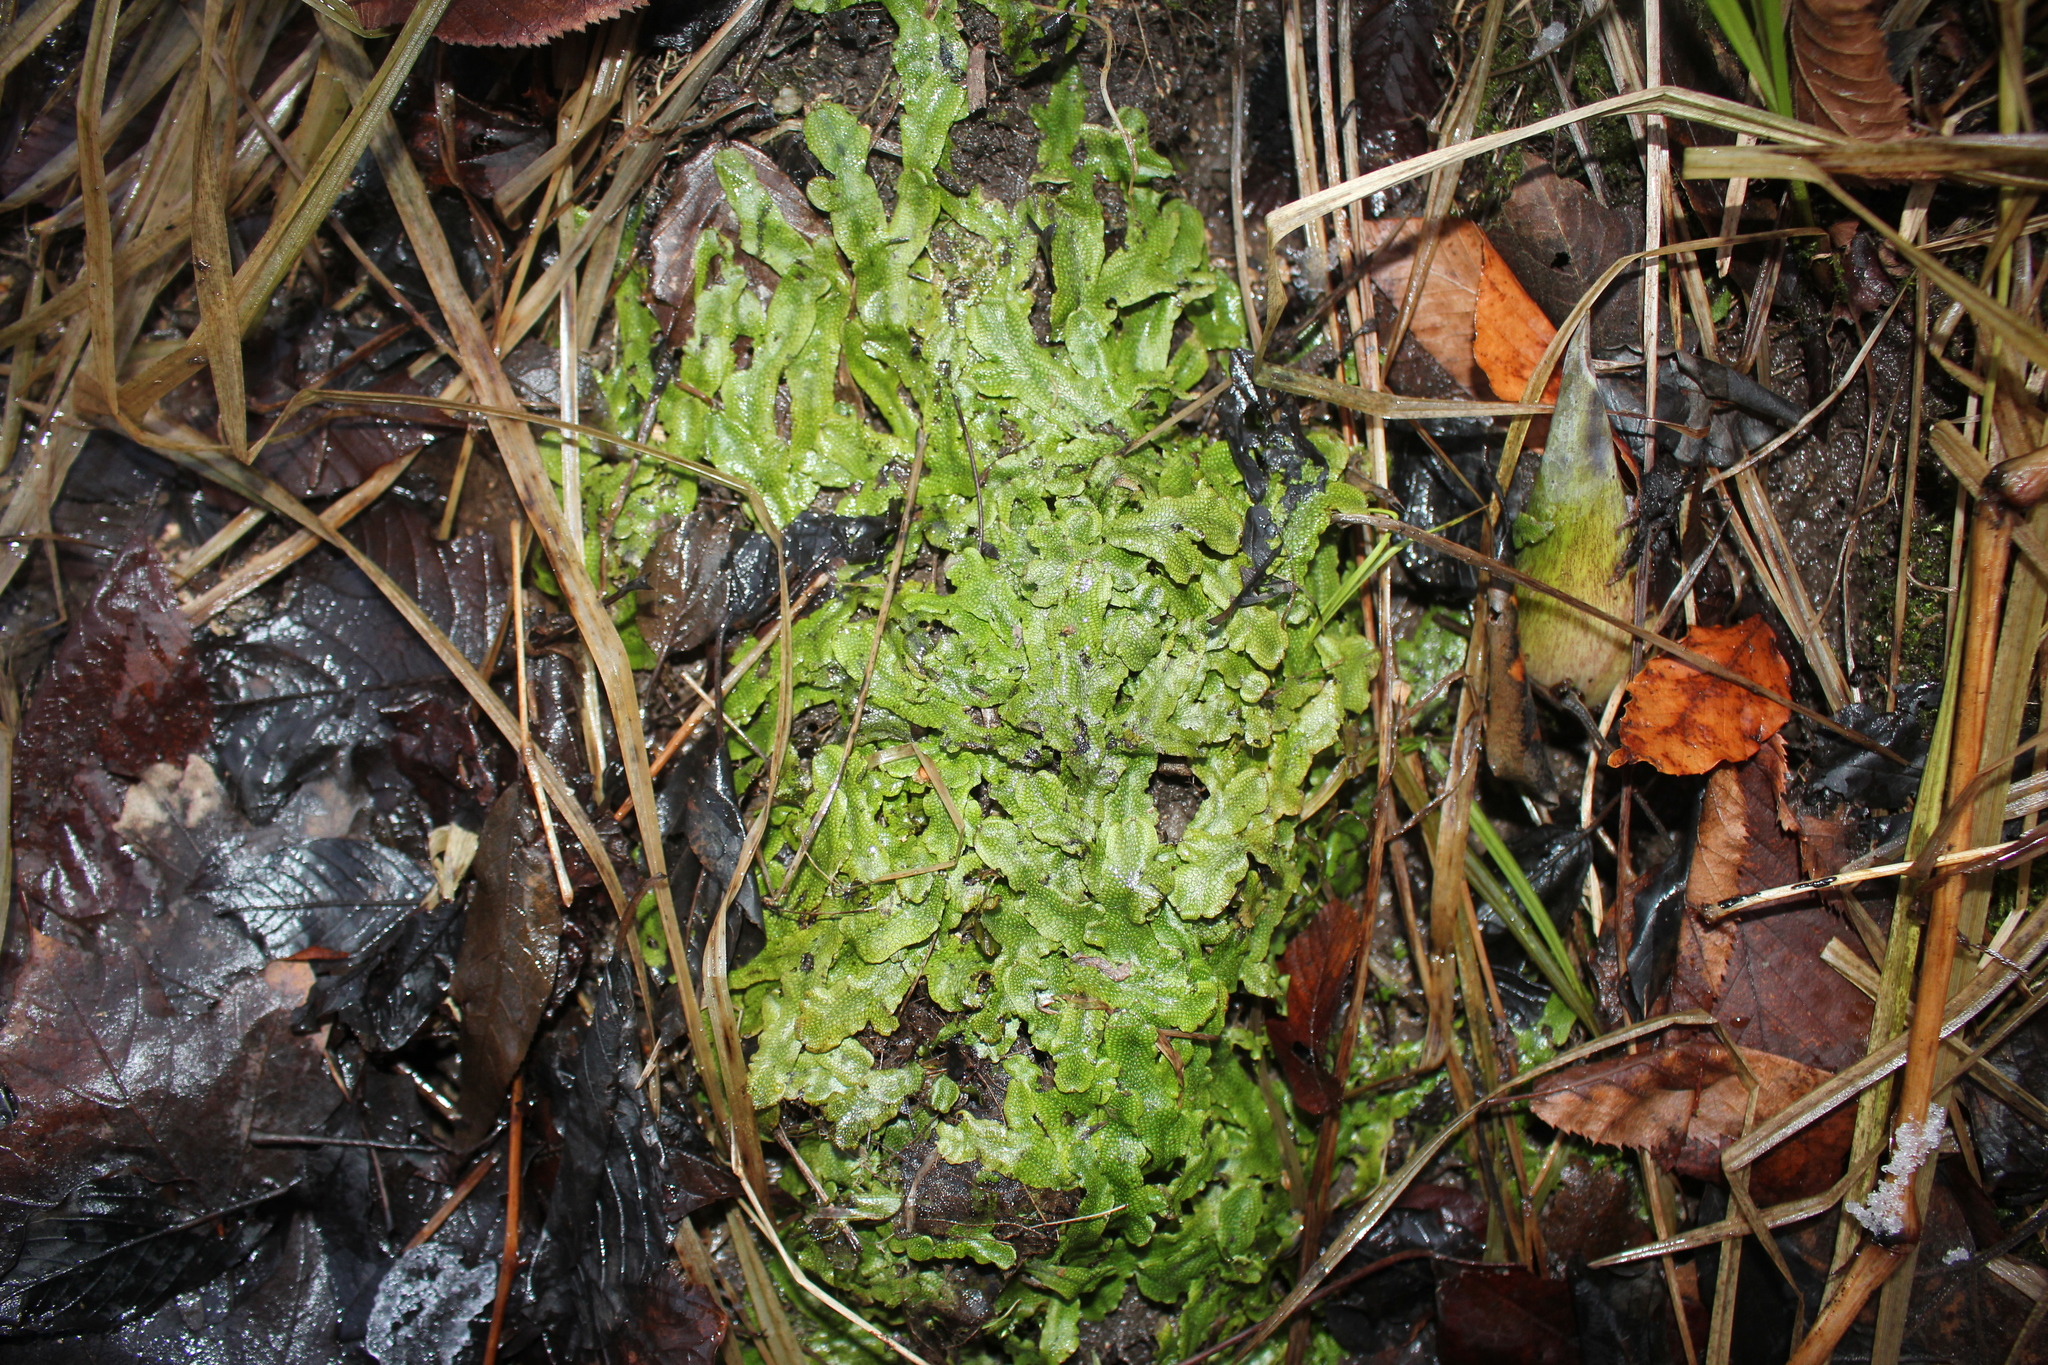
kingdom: Plantae
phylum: Marchantiophyta
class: Marchantiopsida
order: Marchantiales
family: Conocephalaceae
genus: Conocephalum
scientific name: Conocephalum salebrosum
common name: Cat-tongue liverwort
